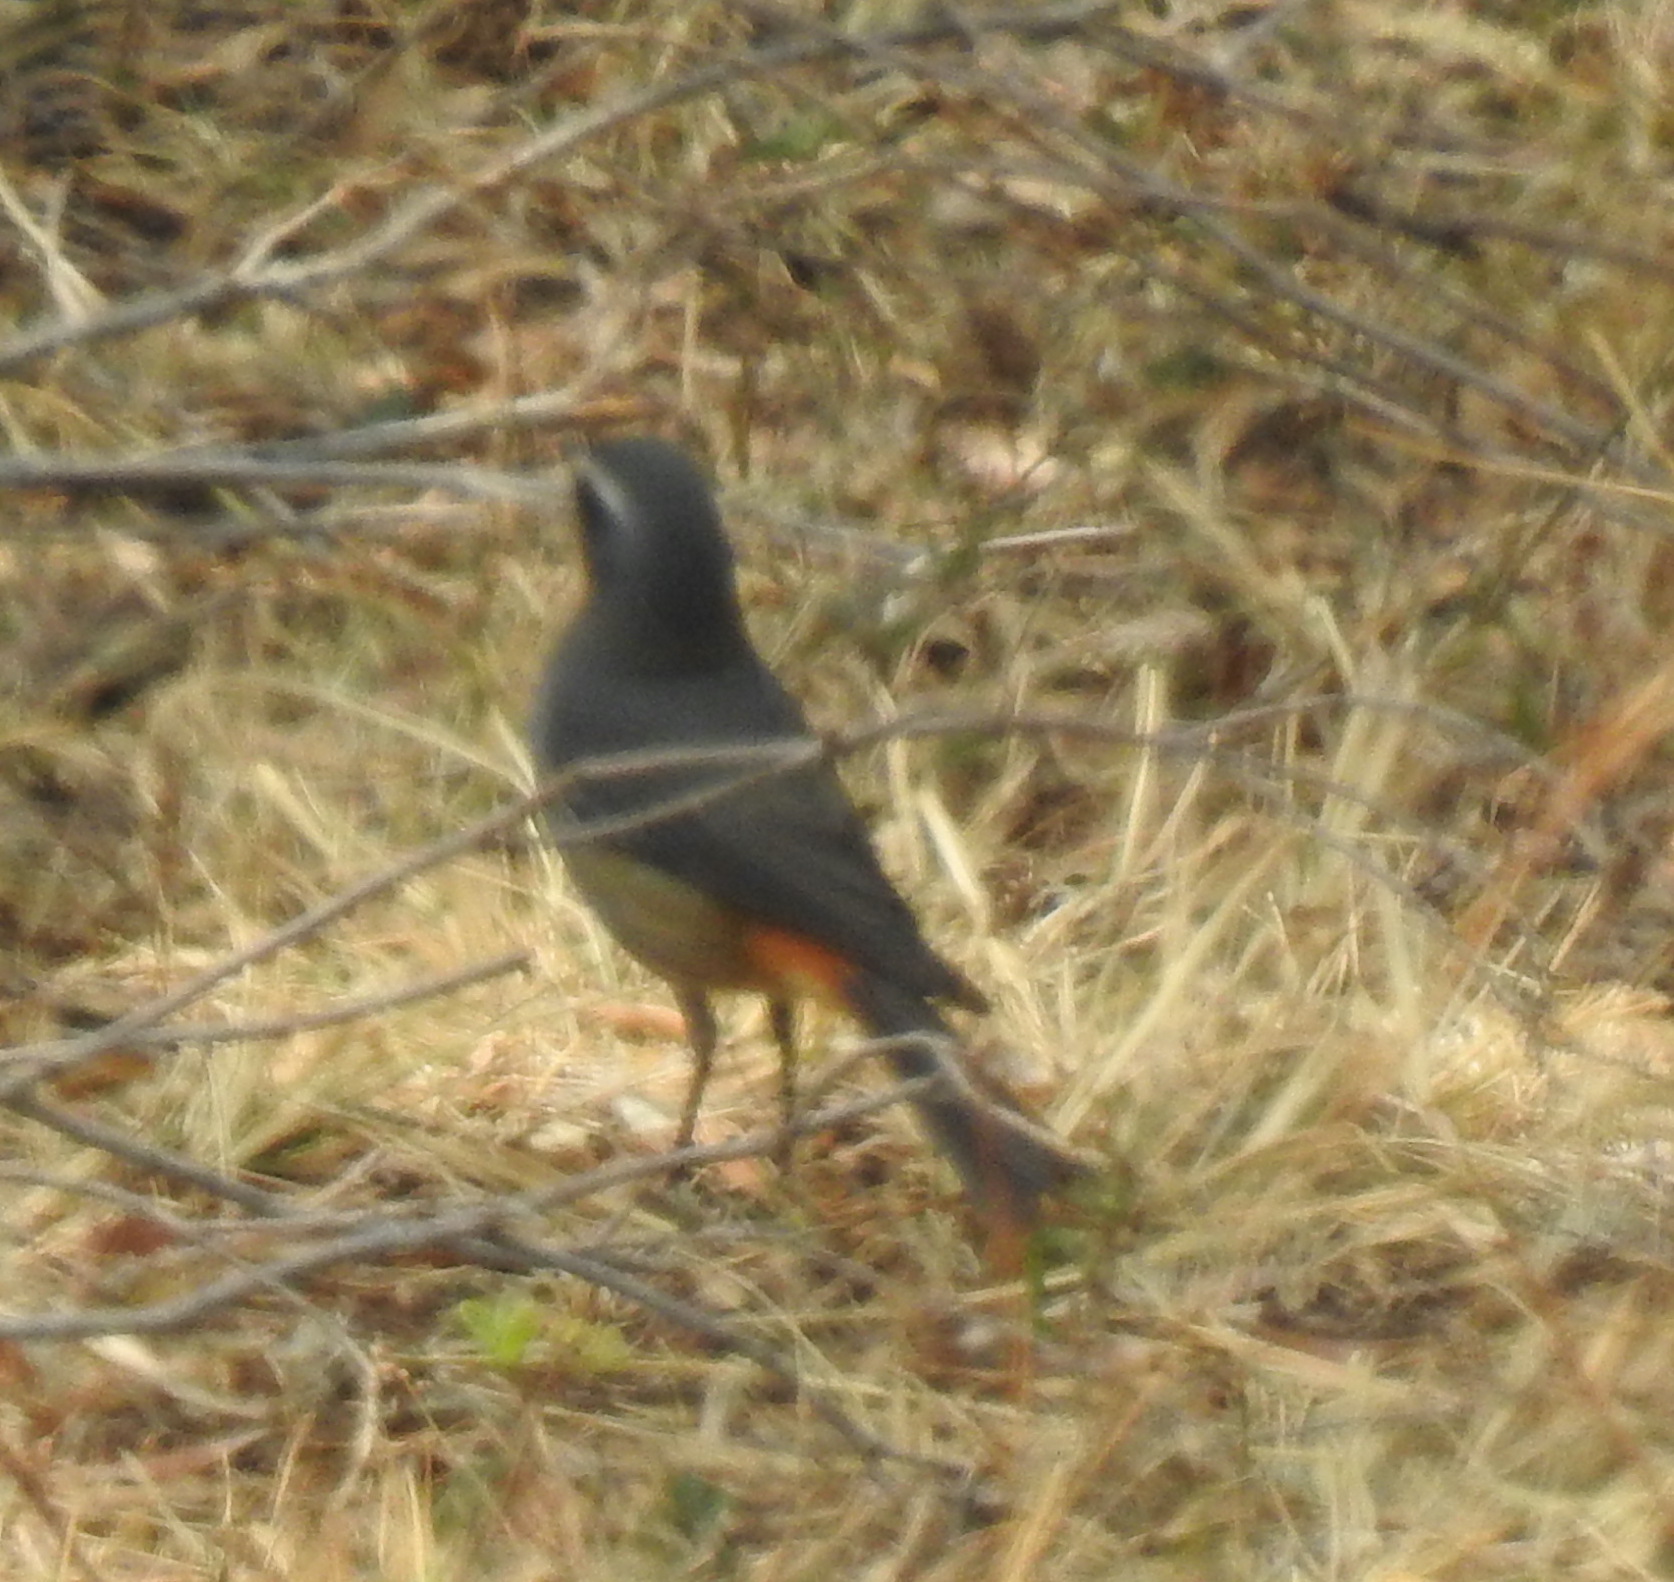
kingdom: Animalia
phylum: Chordata
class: Aves
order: Passeriformes
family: Muscicapidae
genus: Cossypha
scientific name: Cossypha caffra
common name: Cape robin-chat
